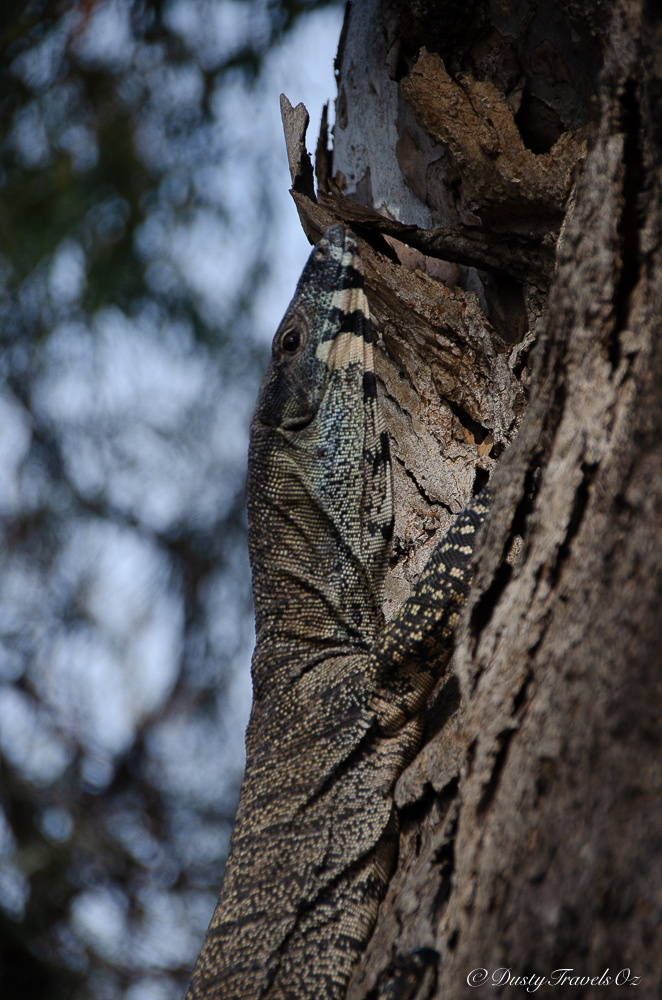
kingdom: Animalia
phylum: Chordata
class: Squamata
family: Varanidae
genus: Varanus
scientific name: Varanus varius
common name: Lace monitor
